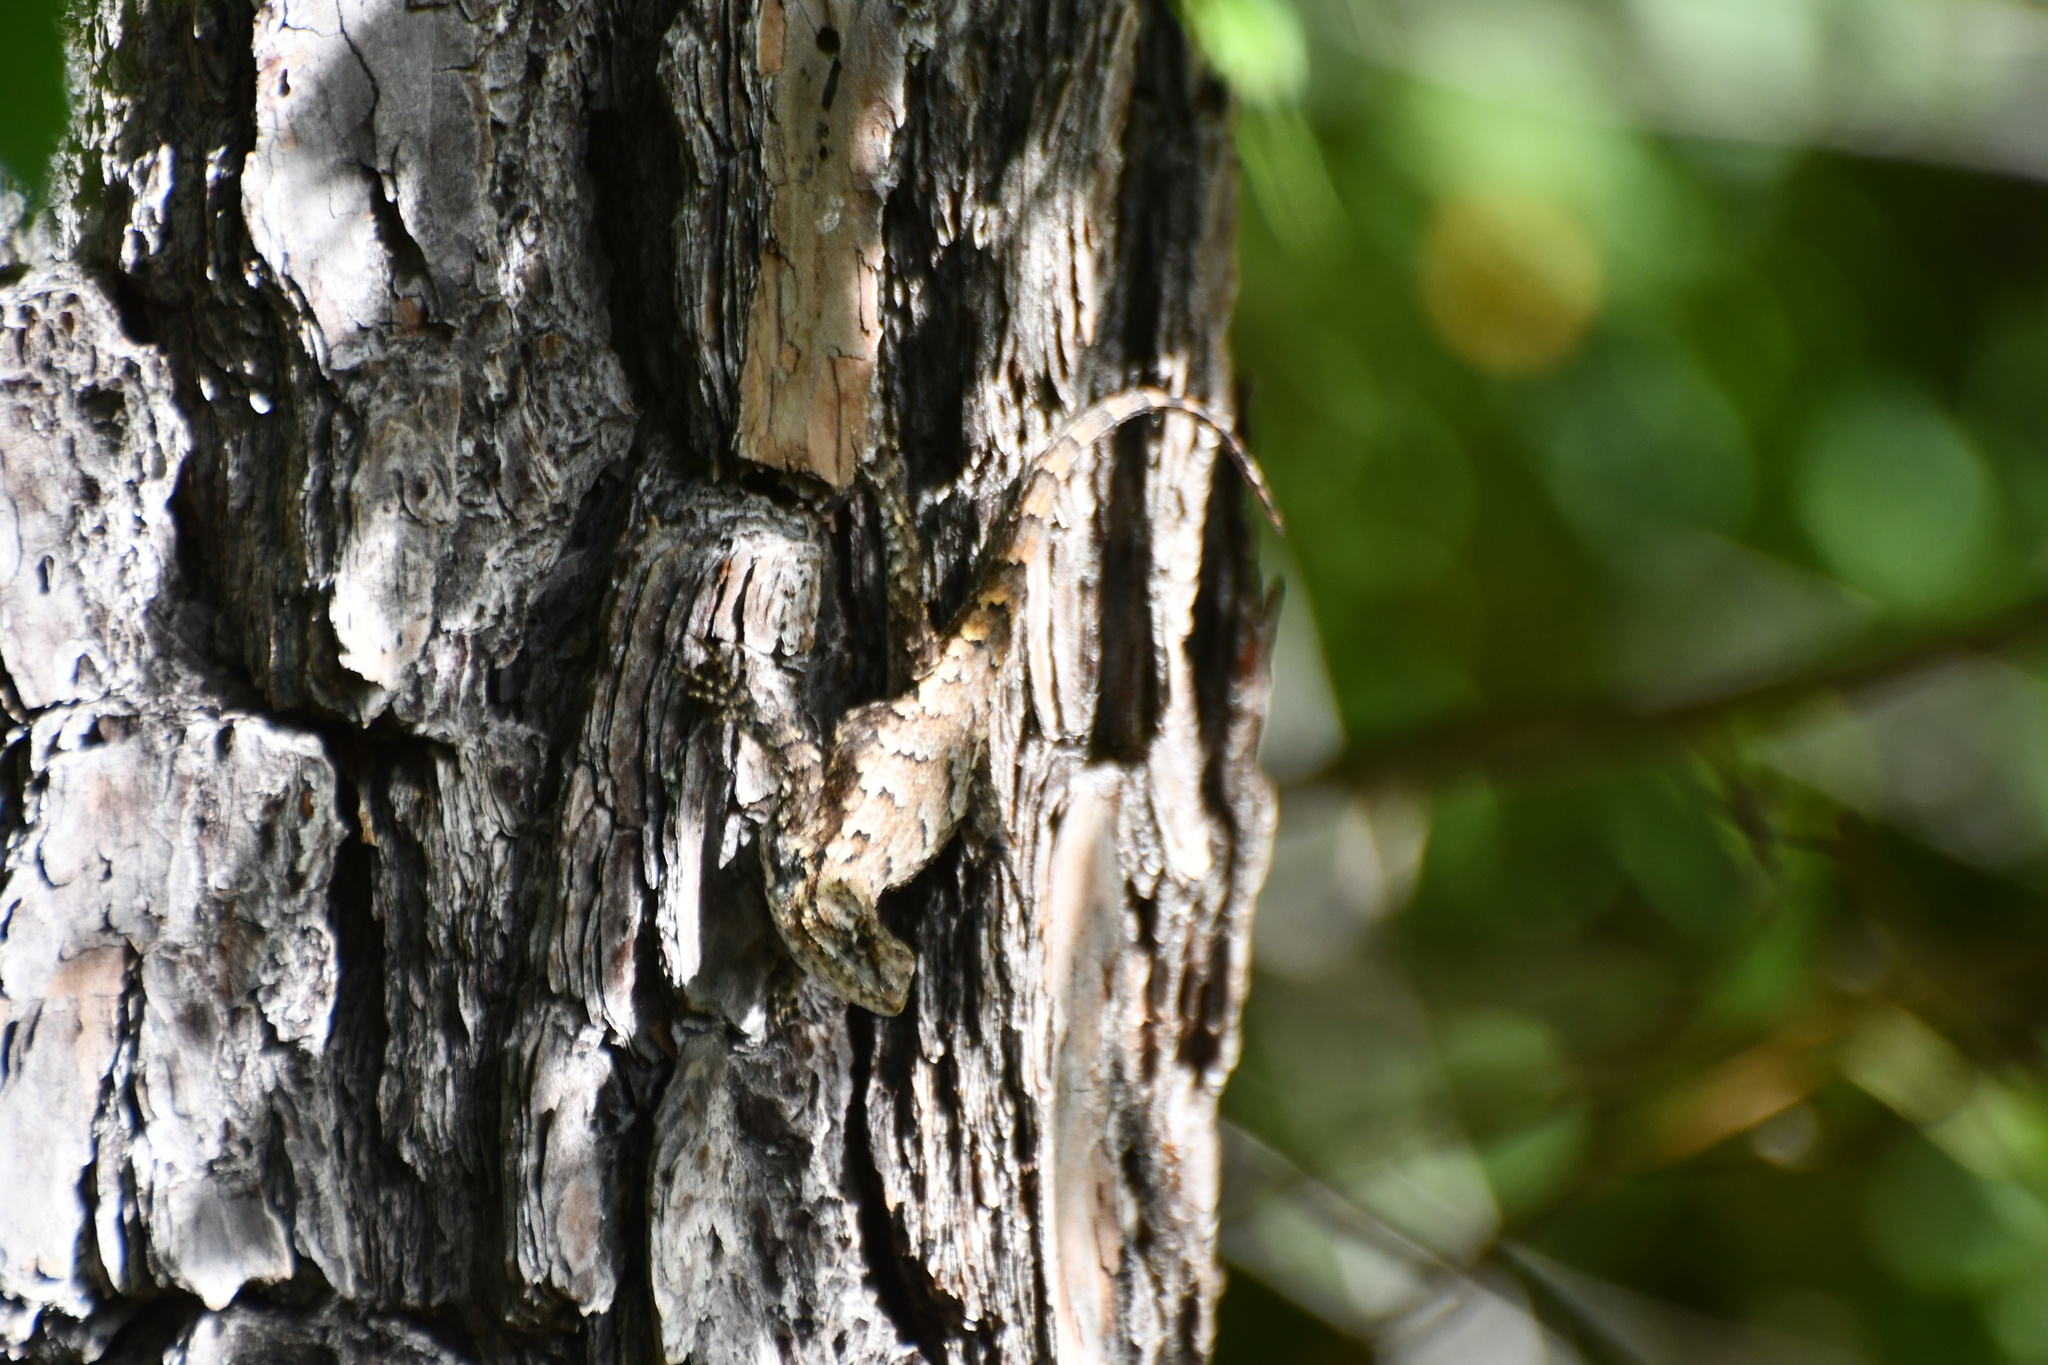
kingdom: Animalia
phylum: Chordata
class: Squamata
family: Phrynosomatidae
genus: Sceloporus
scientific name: Sceloporus undulatus
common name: Eastern fence lizard
